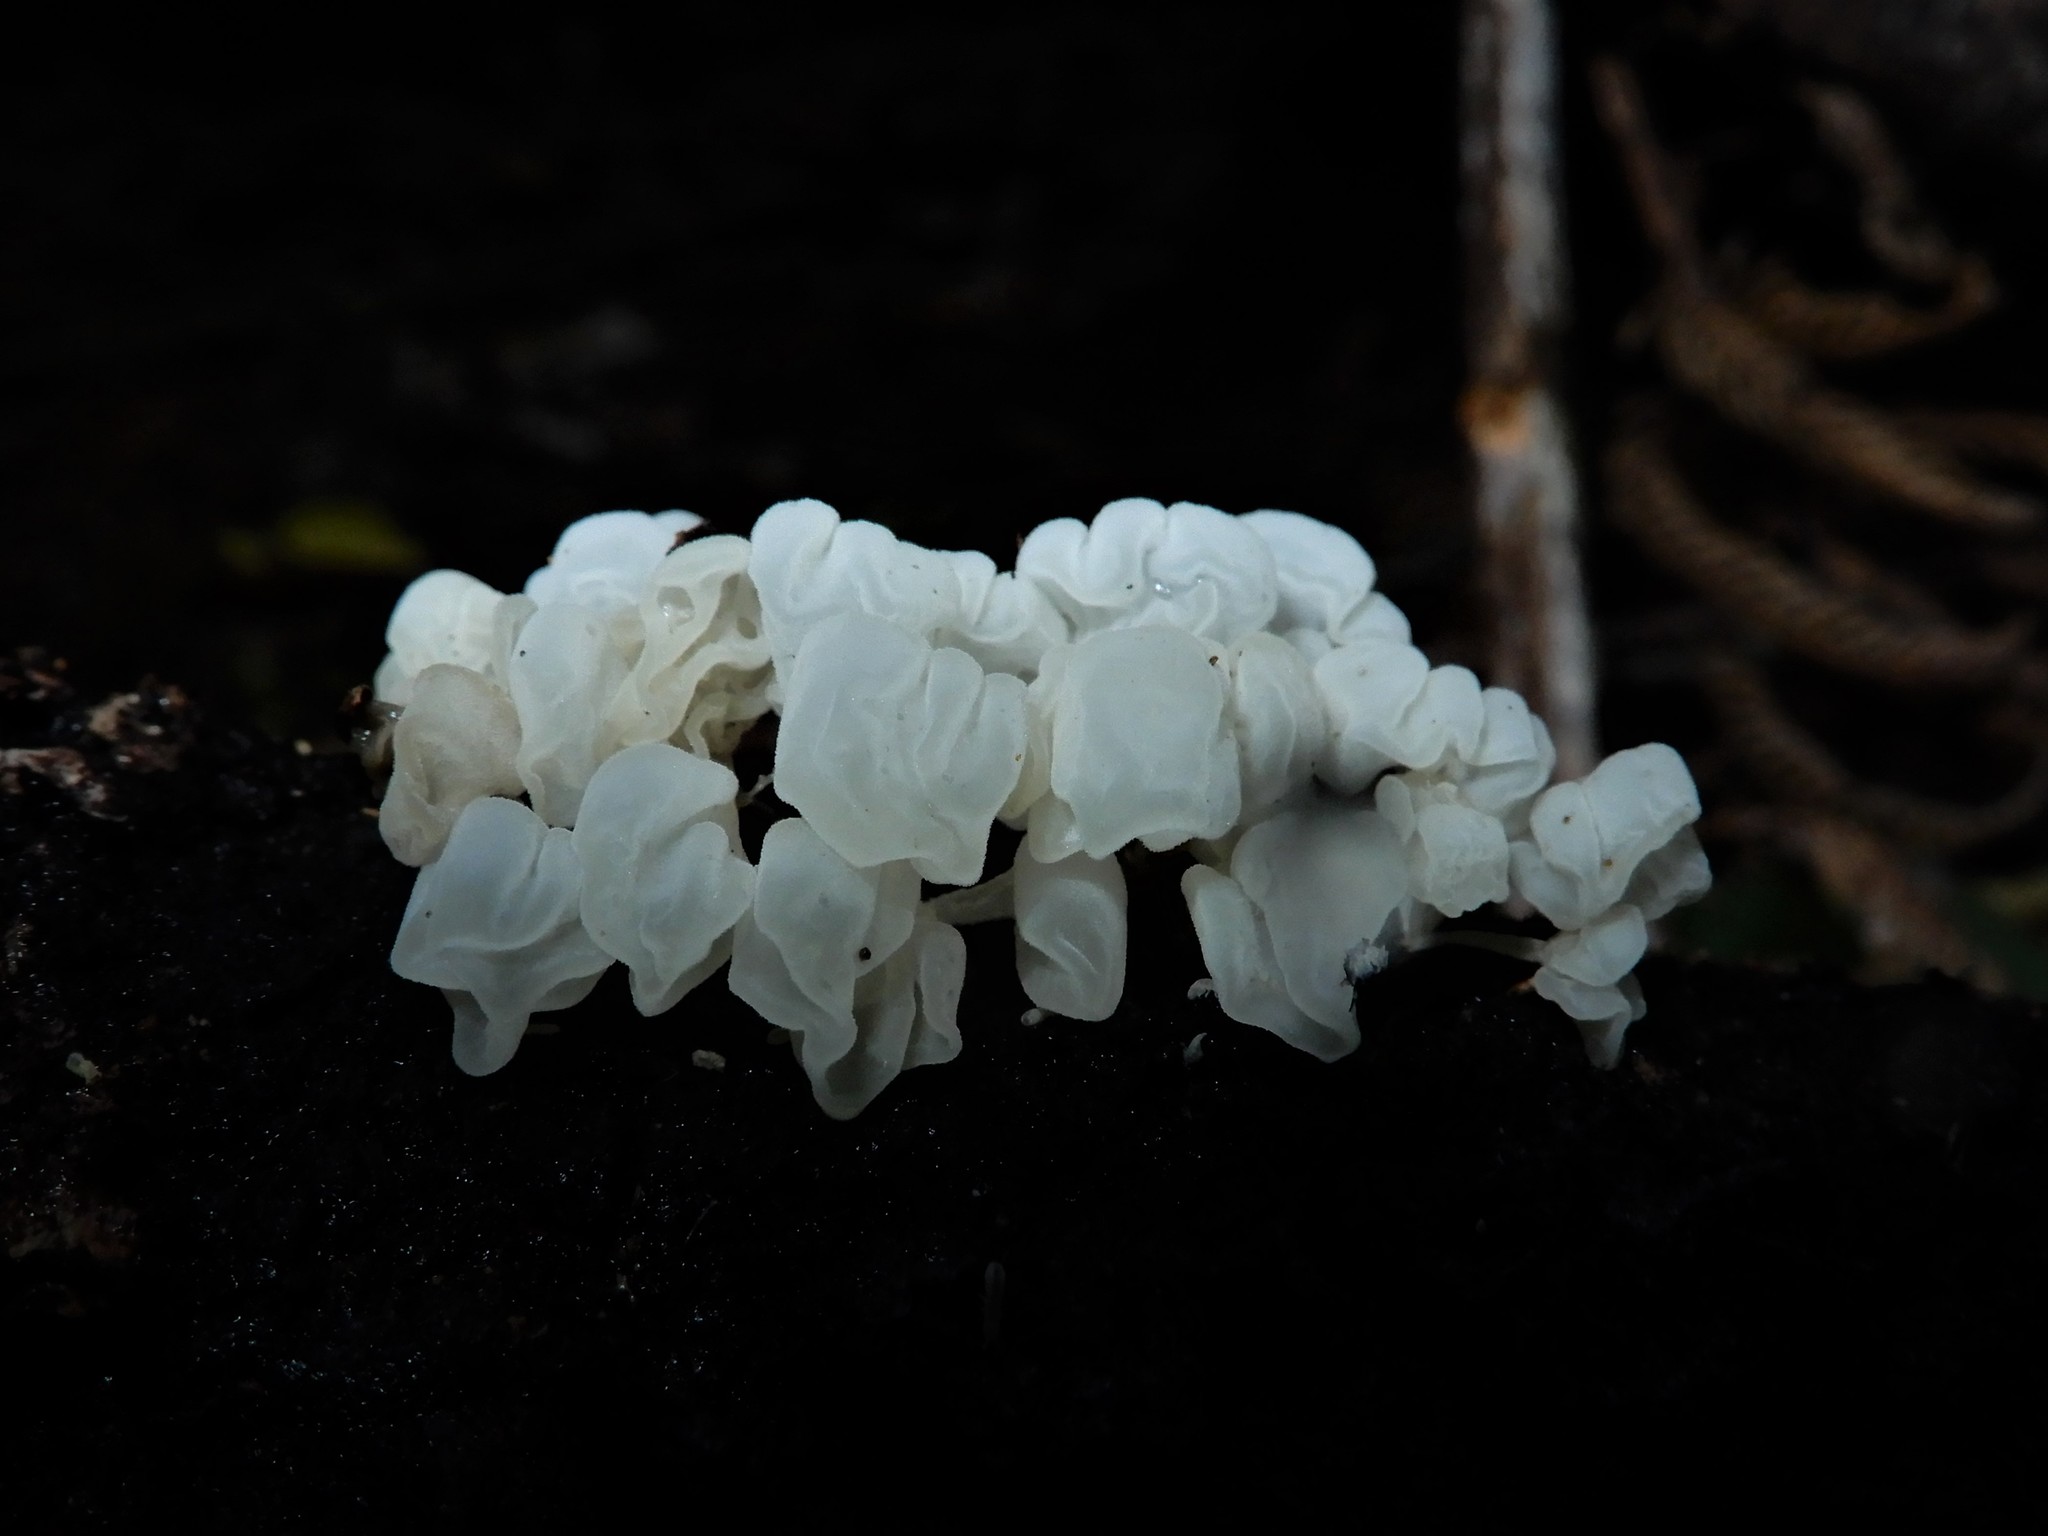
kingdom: Fungi
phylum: Basidiomycota
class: Agaricomycetes
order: Agaricales
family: Physalacriaceae
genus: Physalacria
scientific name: Physalacria pseudotropica
